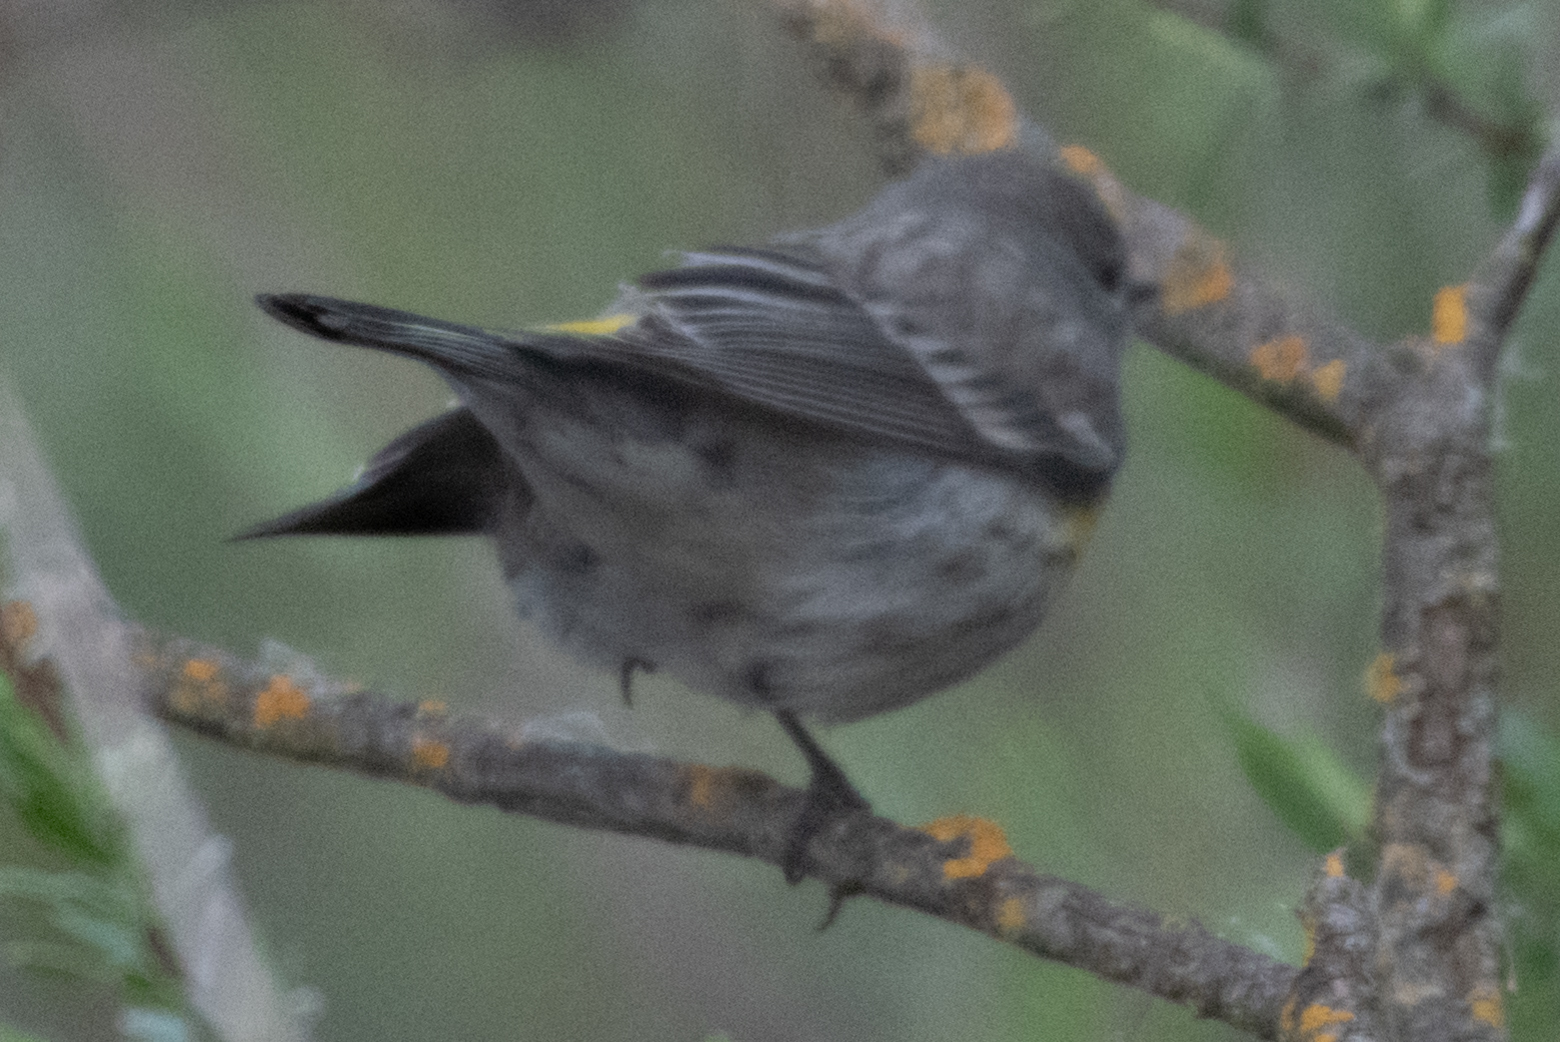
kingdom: Animalia
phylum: Chordata
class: Aves
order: Passeriformes
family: Parulidae
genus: Setophaga
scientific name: Setophaga coronata
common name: Myrtle warbler
